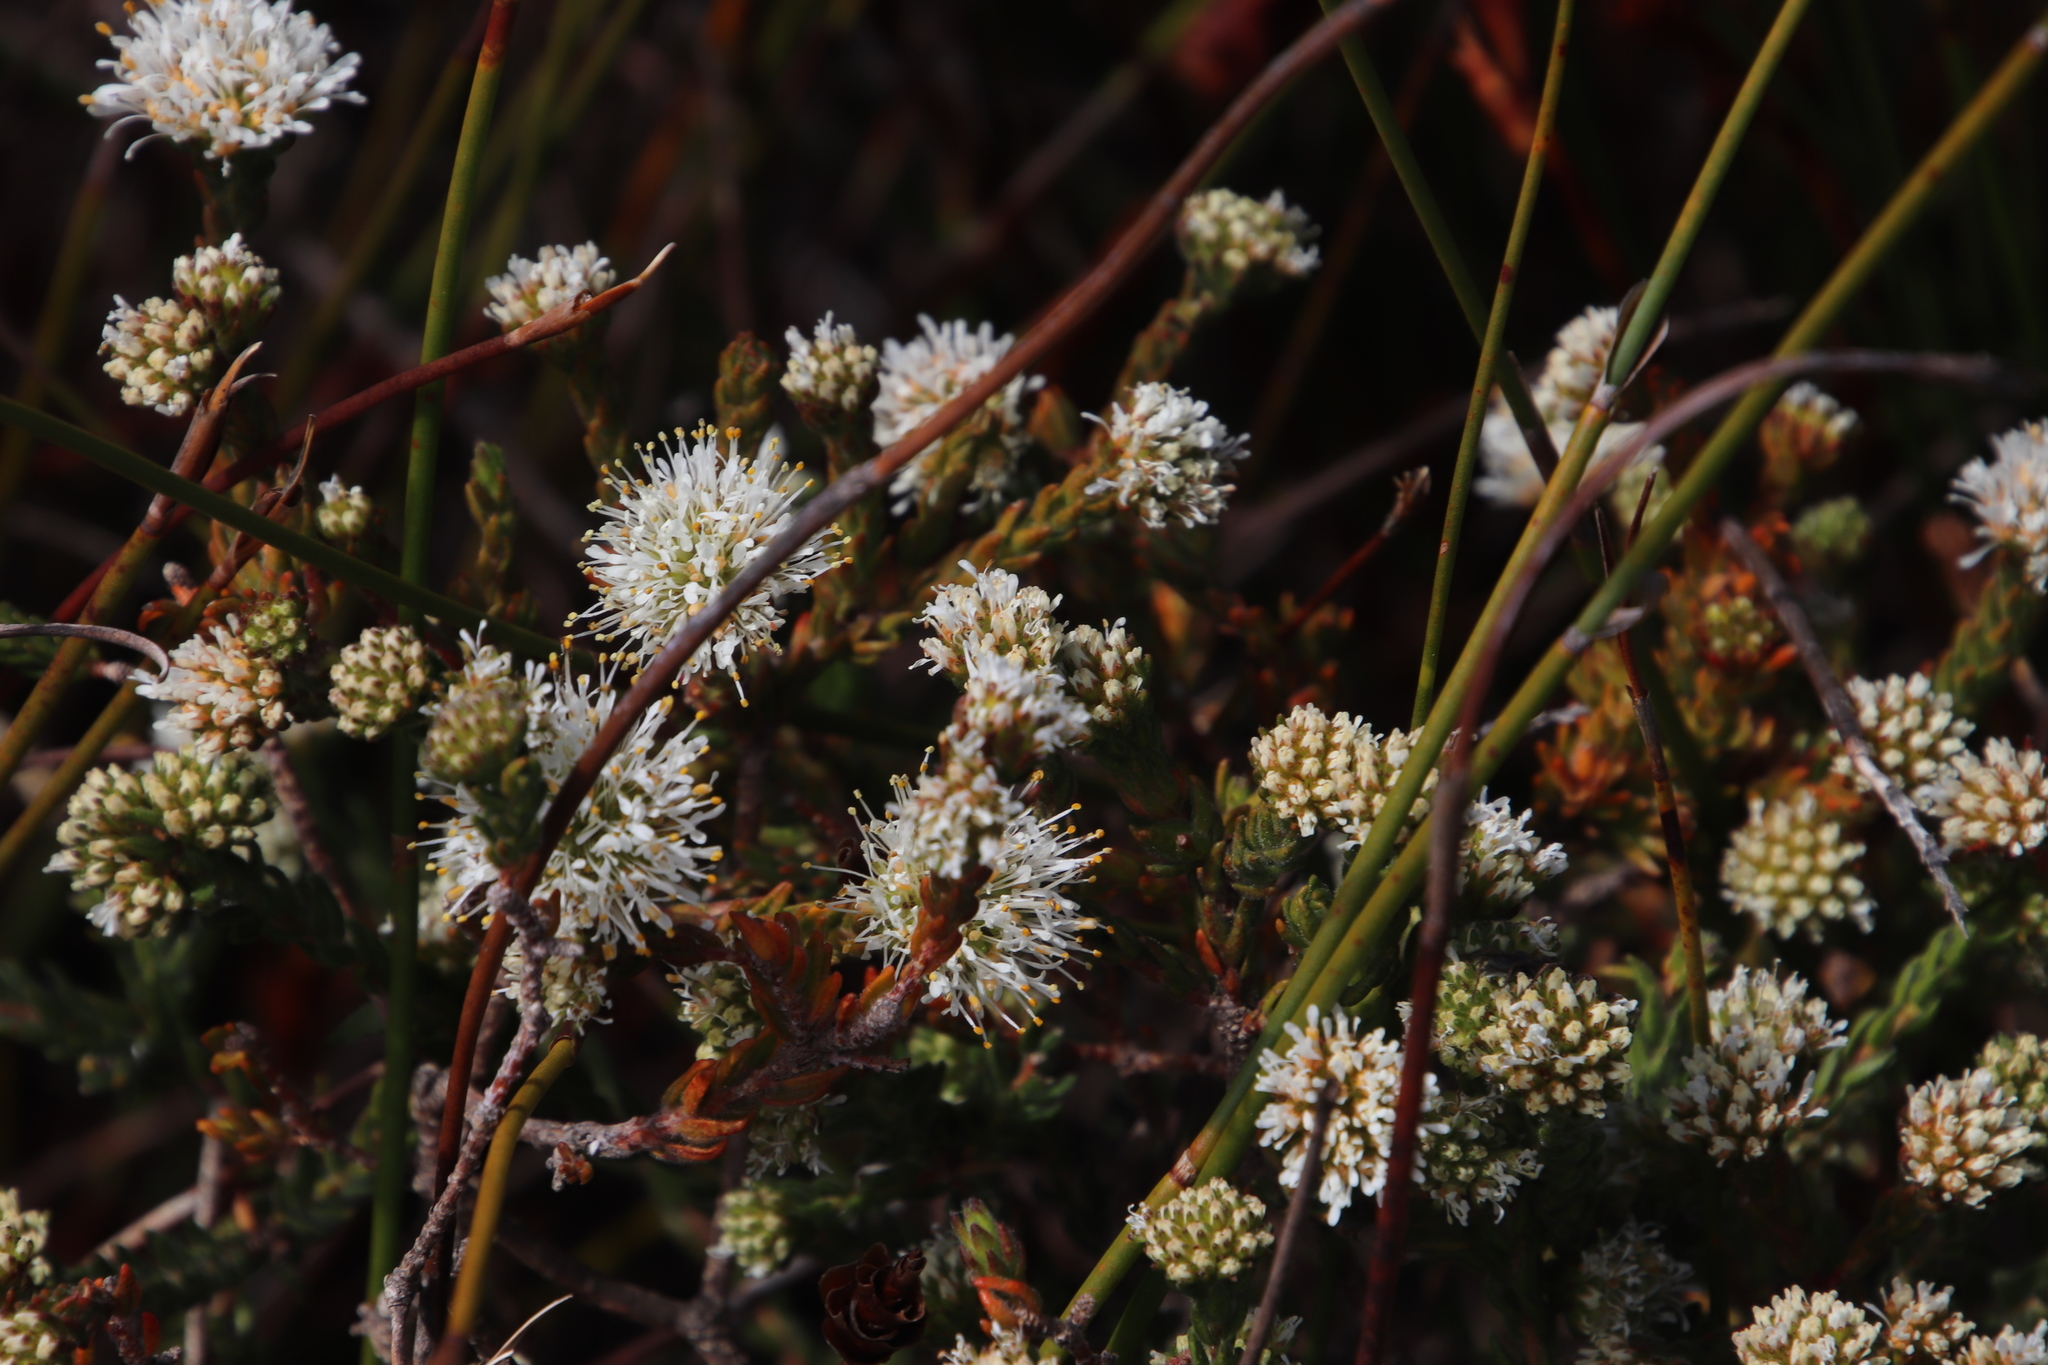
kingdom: Plantae
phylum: Tracheophyta
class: Magnoliopsida
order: Sapindales
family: Rutaceae
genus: Agathosma
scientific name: Agathosma capensis
